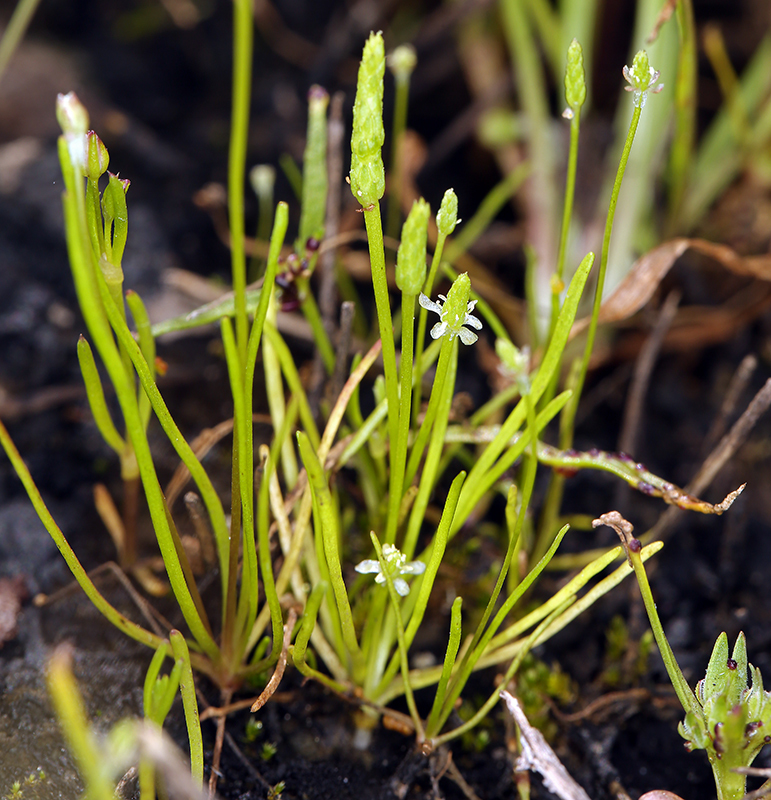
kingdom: Plantae
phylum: Tracheophyta
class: Magnoliopsida
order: Ranunculales
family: Ranunculaceae
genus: Myosurus
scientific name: Myosurus minimus
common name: Mousetail
